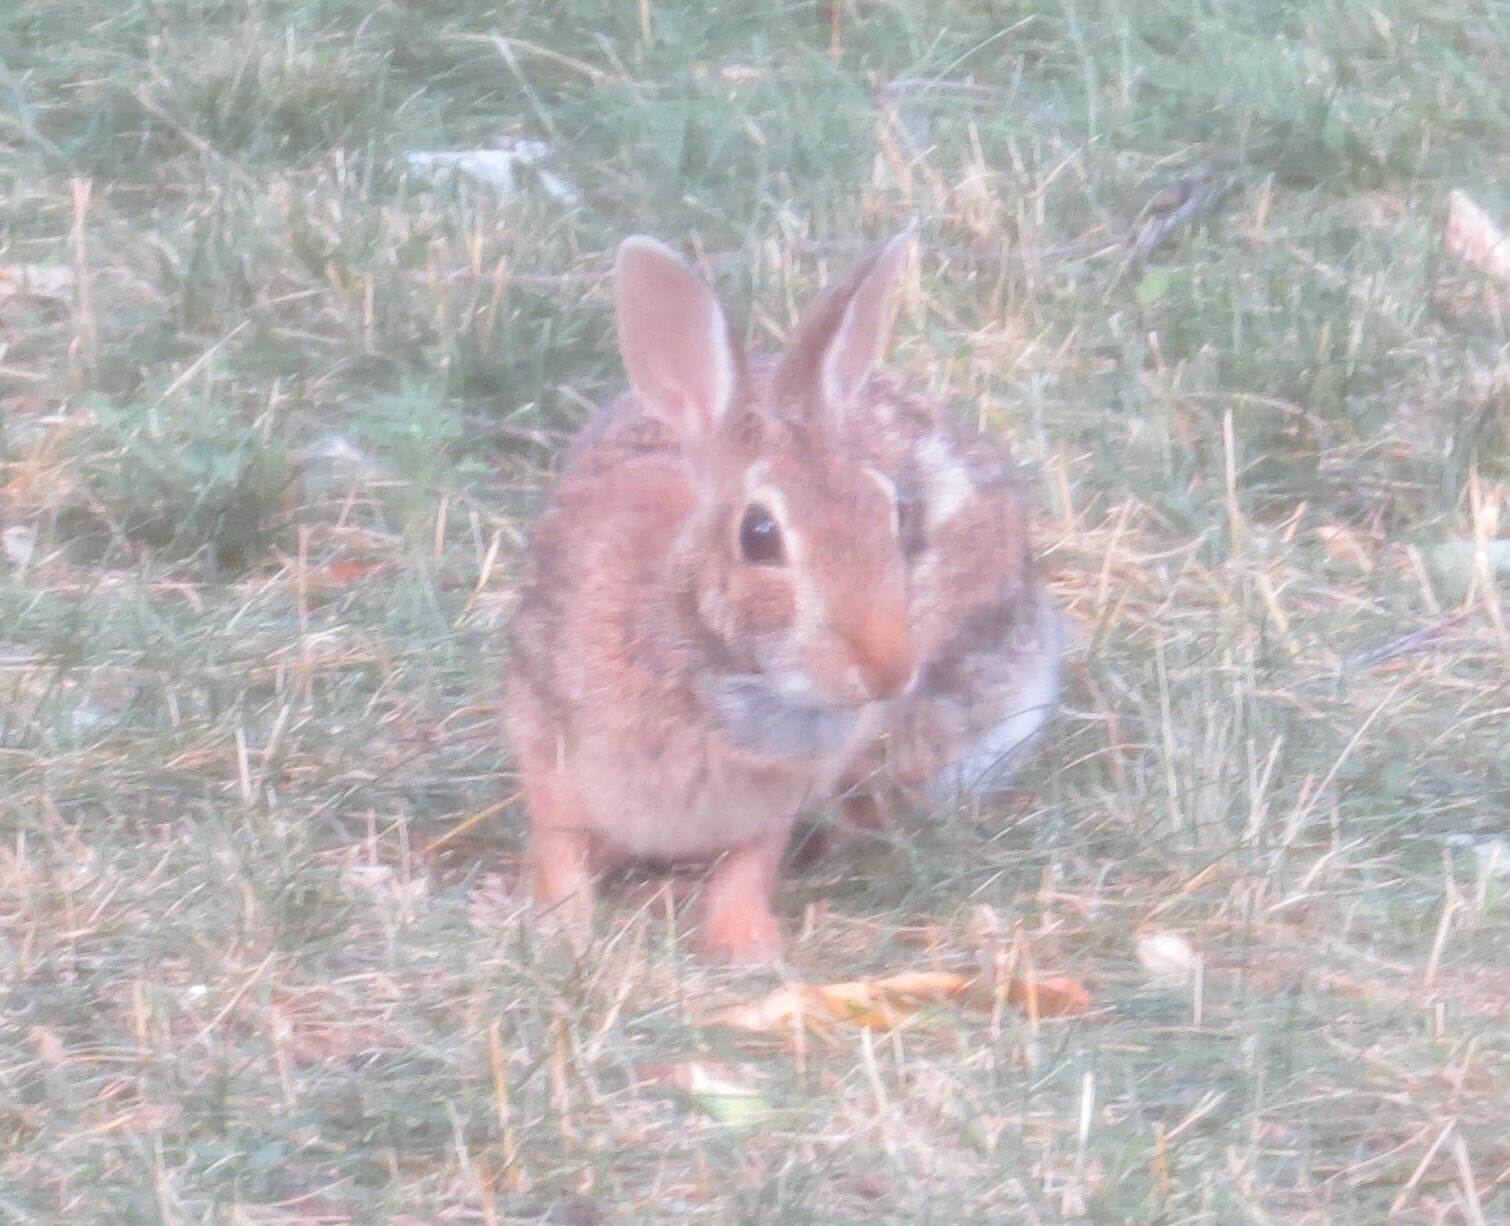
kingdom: Animalia
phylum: Chordata
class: Mammalia
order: Lagomorpha
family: Leporidae
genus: Sylvilagus
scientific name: Sylvilagus floridanus
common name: Eastern cottontail
